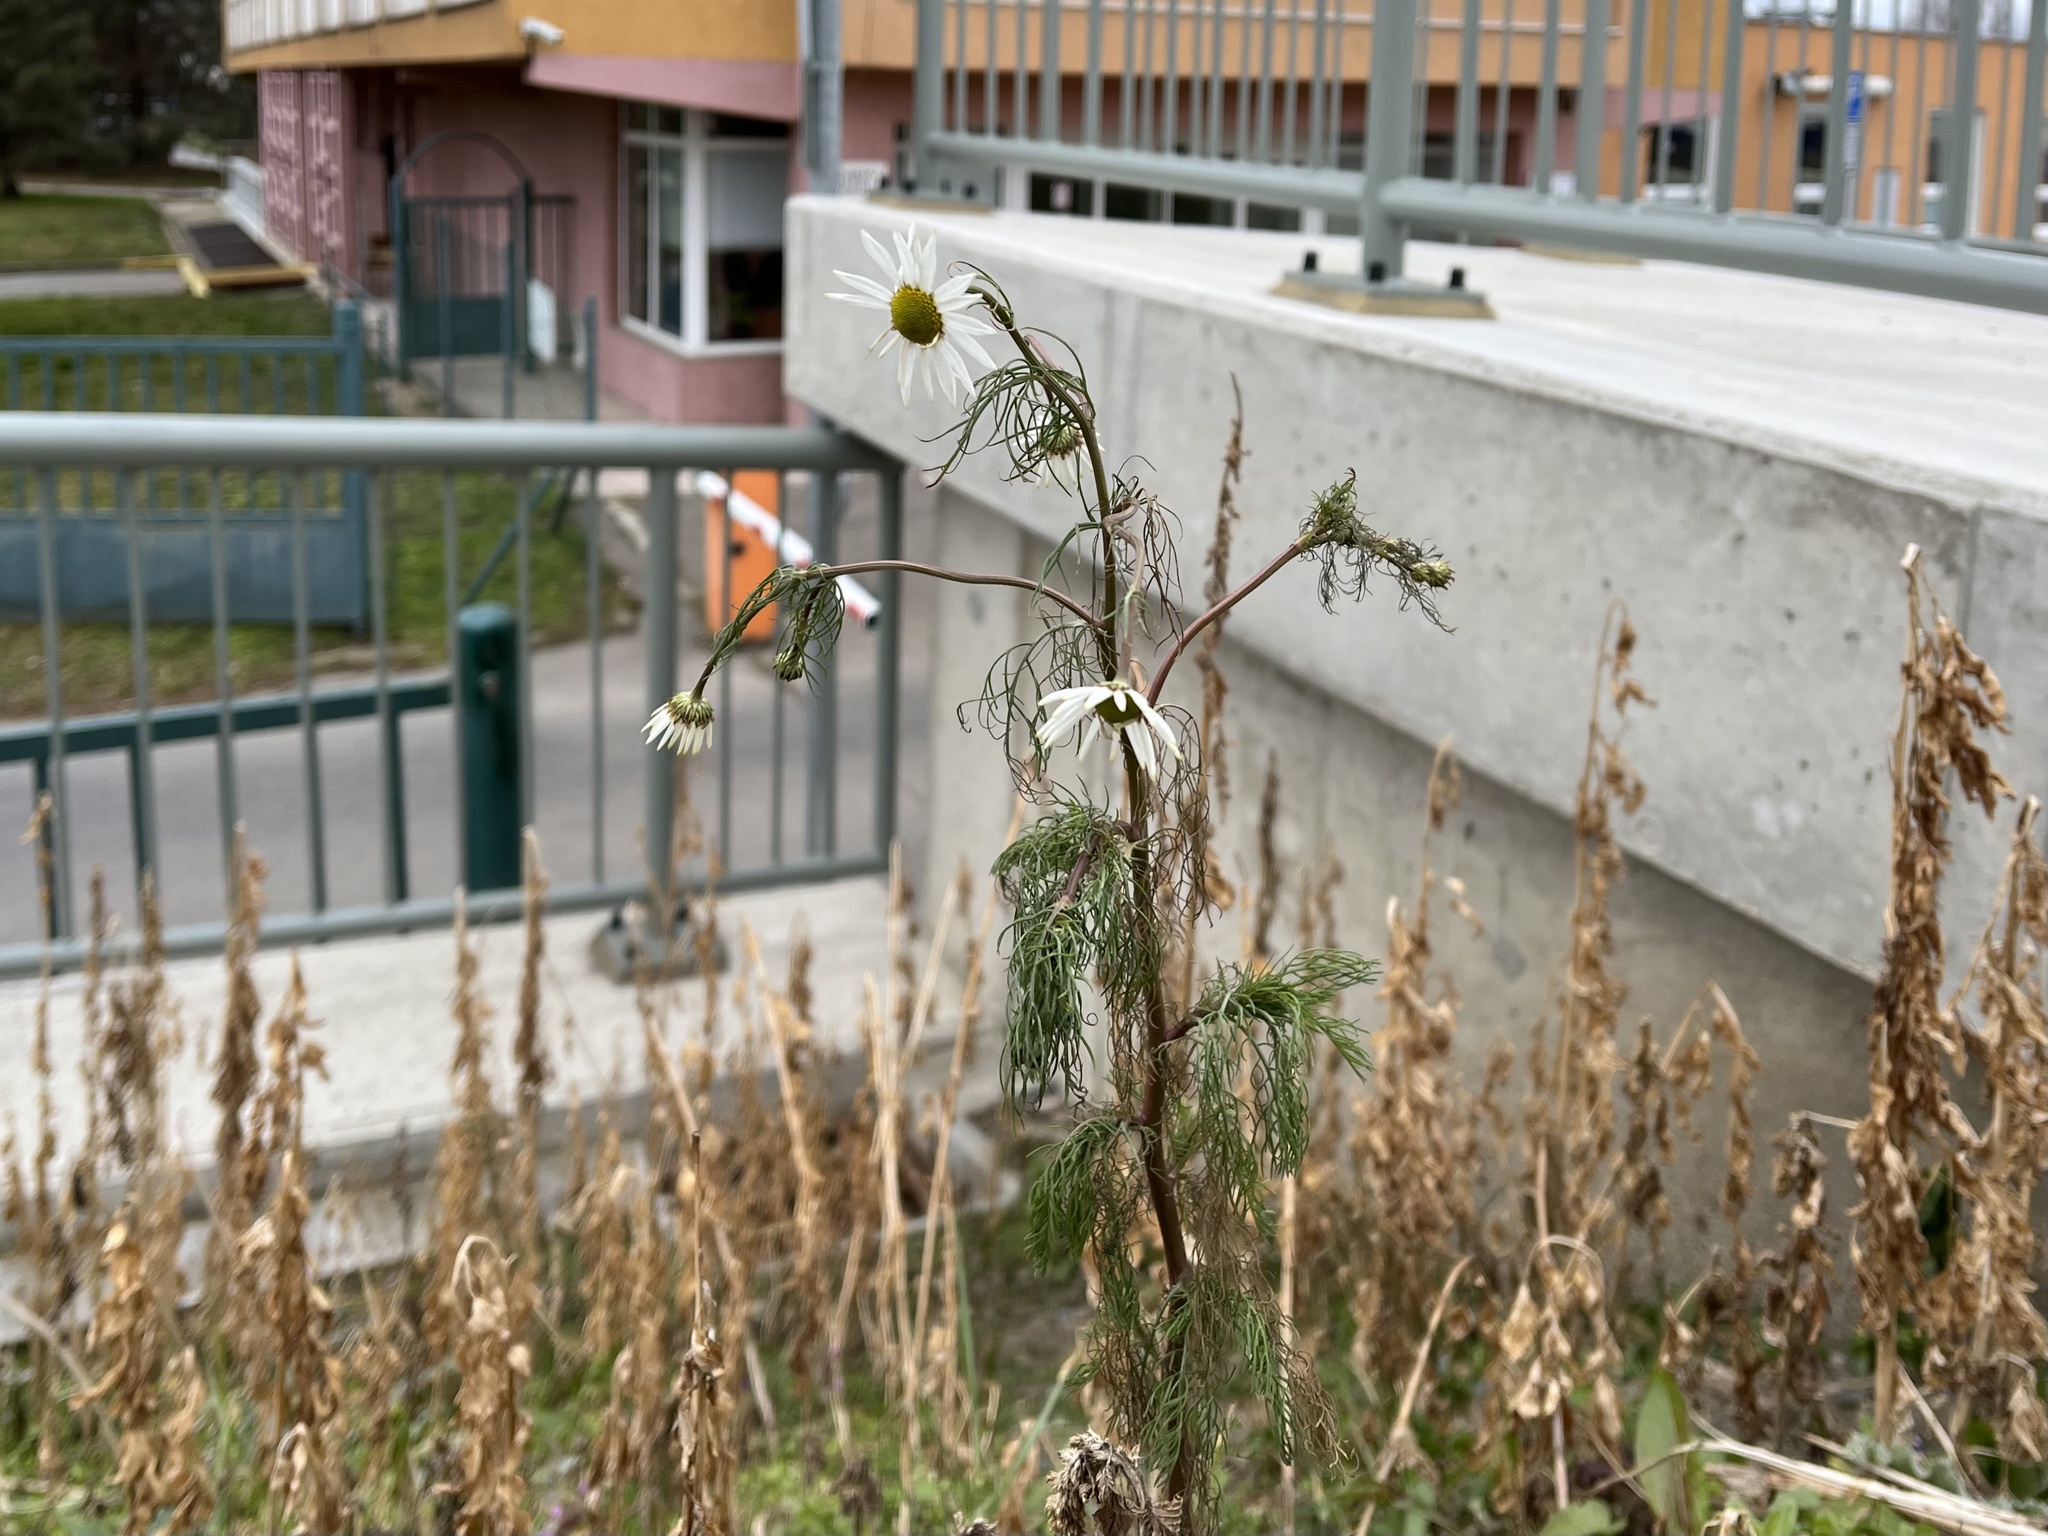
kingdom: Plantae
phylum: Tracheophyta
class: Magnoliopsida
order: Asterales
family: Asteraceae
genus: Tripleurospermum
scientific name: Tripleurospermum inodorum
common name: Scentless mayweed
